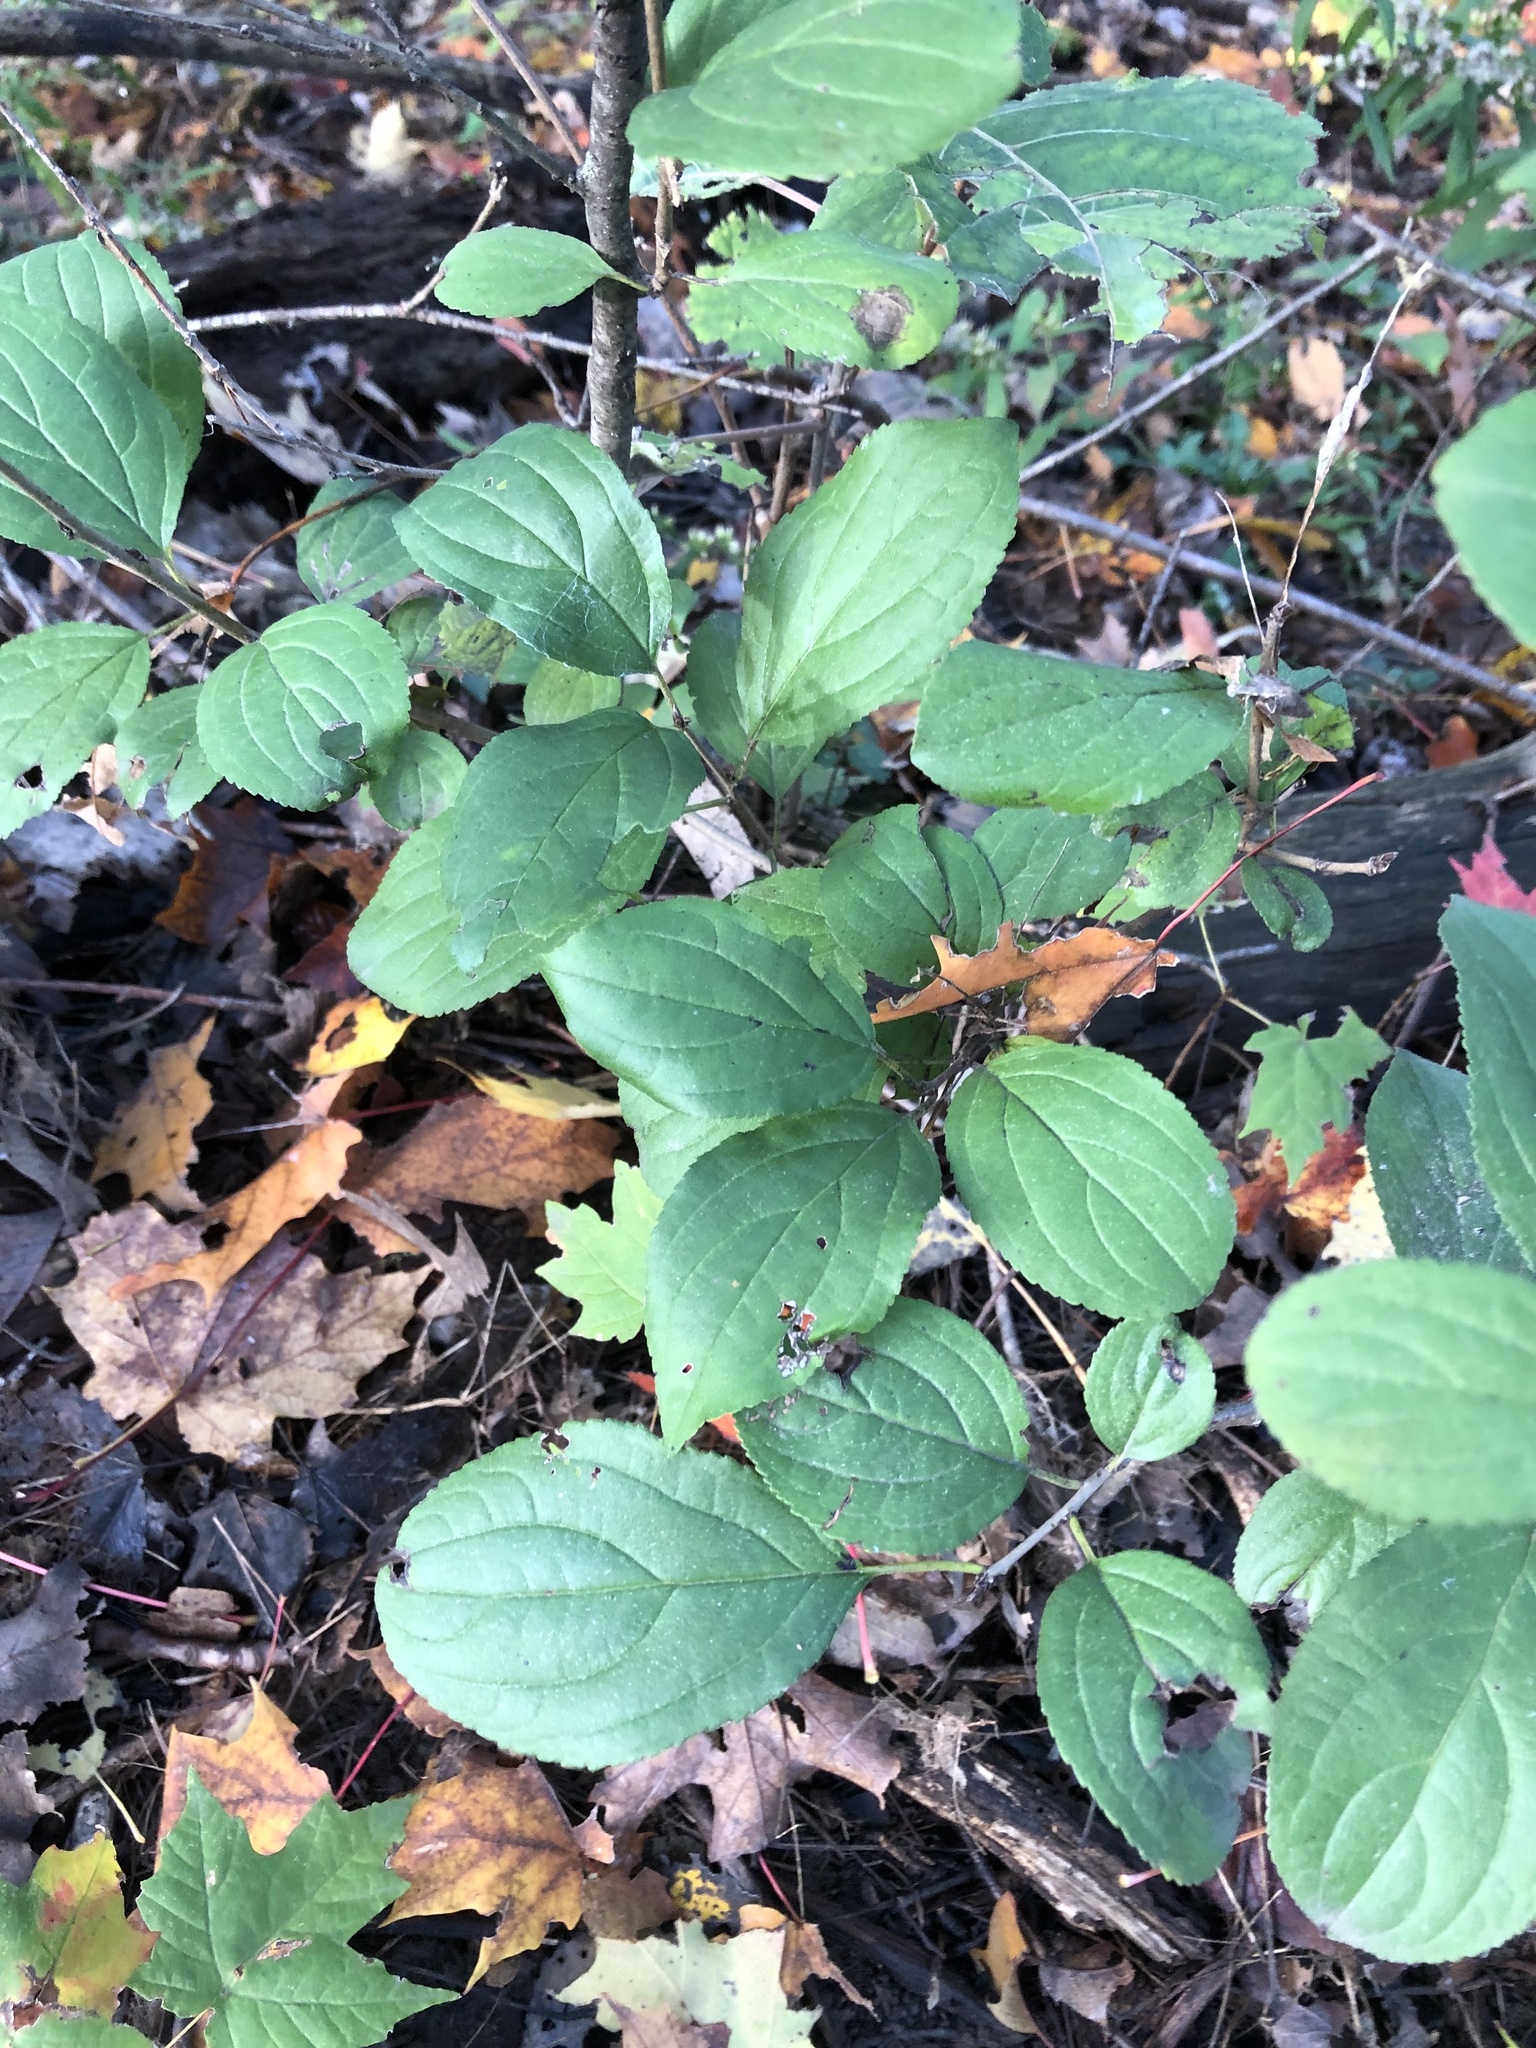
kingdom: Plantae
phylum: Tracheophyta
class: Magnoliopsida
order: Rosales
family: Rhamnaceae
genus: Rhamnus
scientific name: Rhamnus cathartica
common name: Common buckthorn
